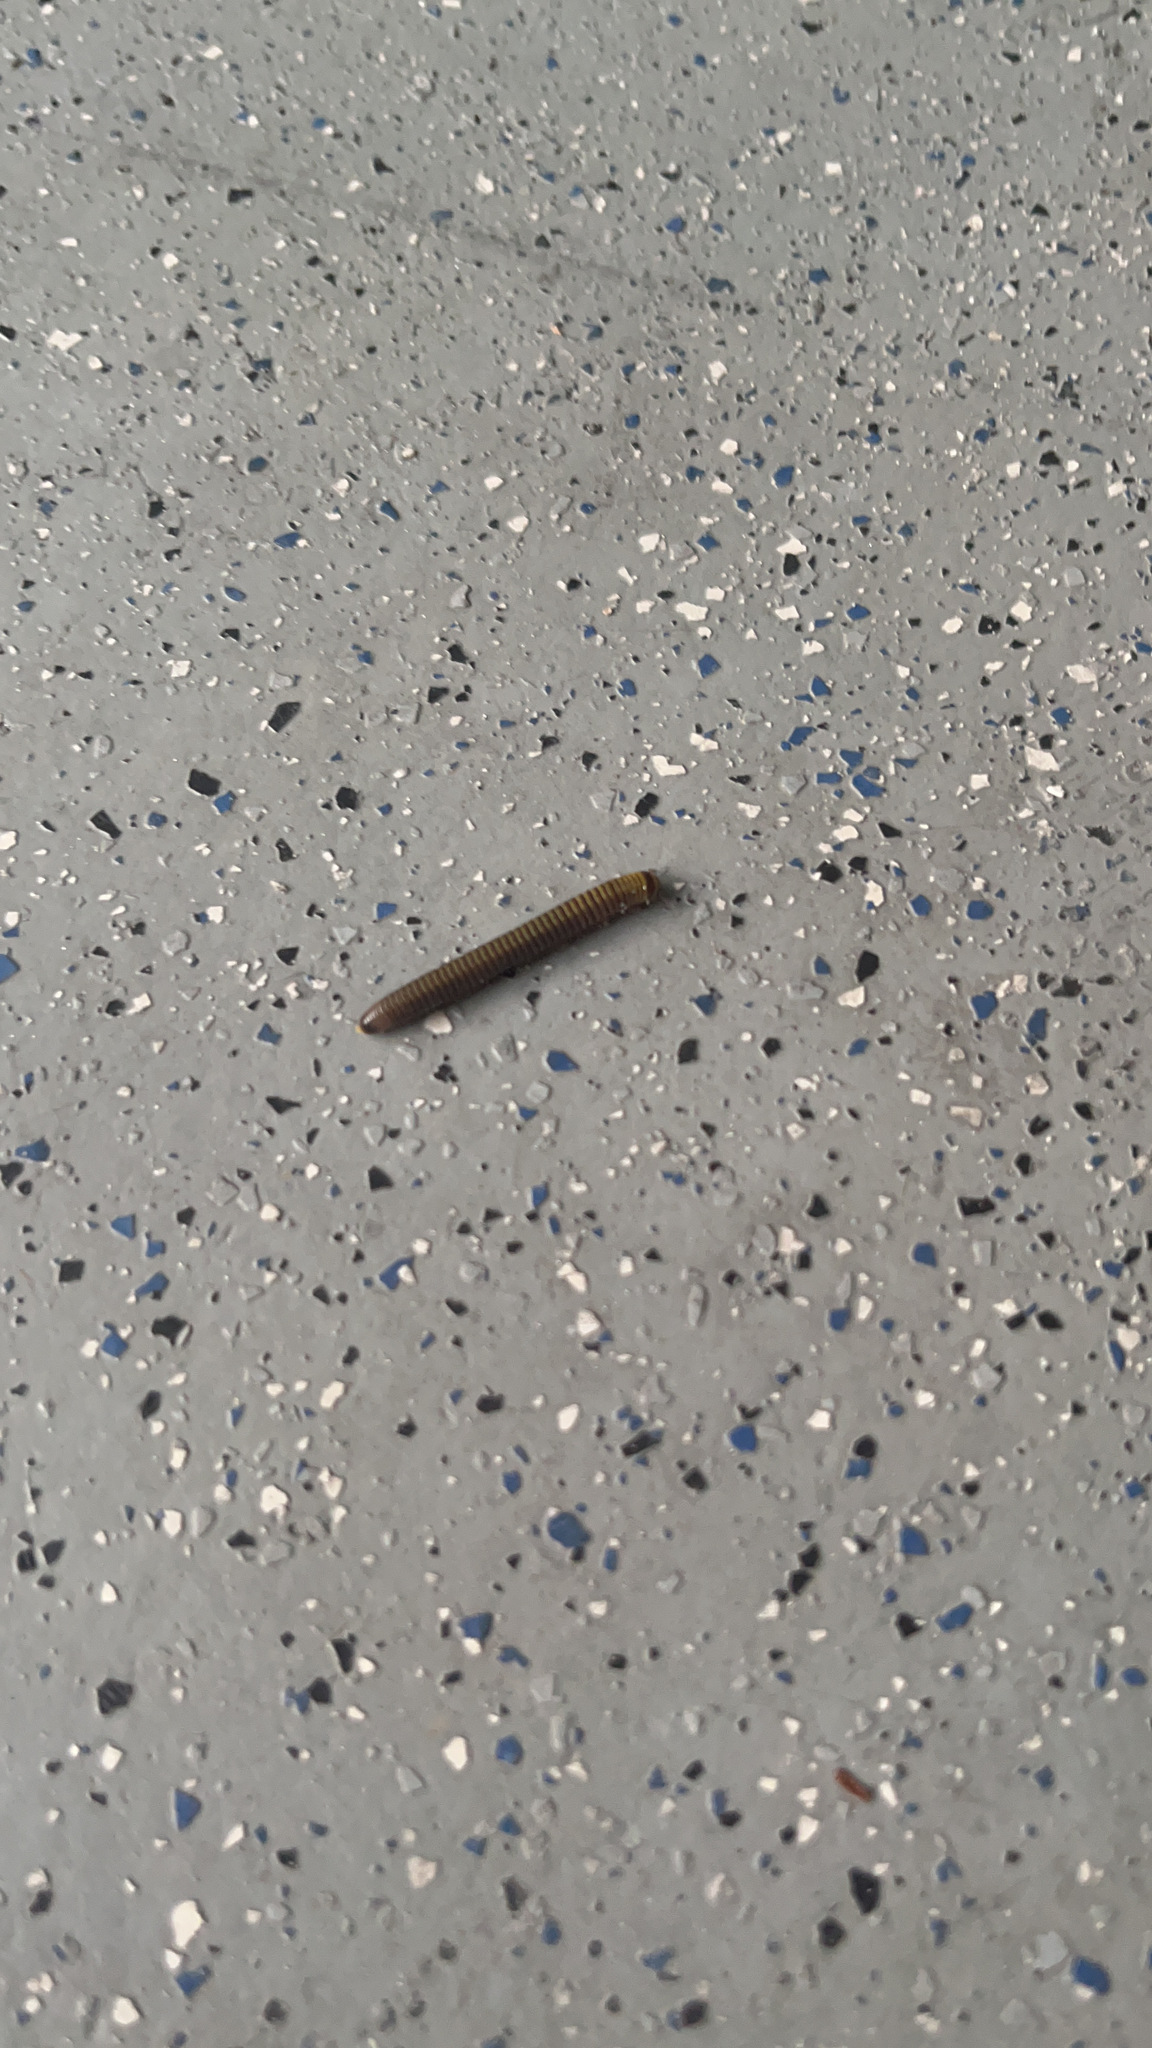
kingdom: Animalia
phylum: Arthropoda
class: Diplopoda
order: Spirobolida
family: Rhinocricidae
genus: Anadenobolus
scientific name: Anadenobolus monilicornis
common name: Caribbean millipede
